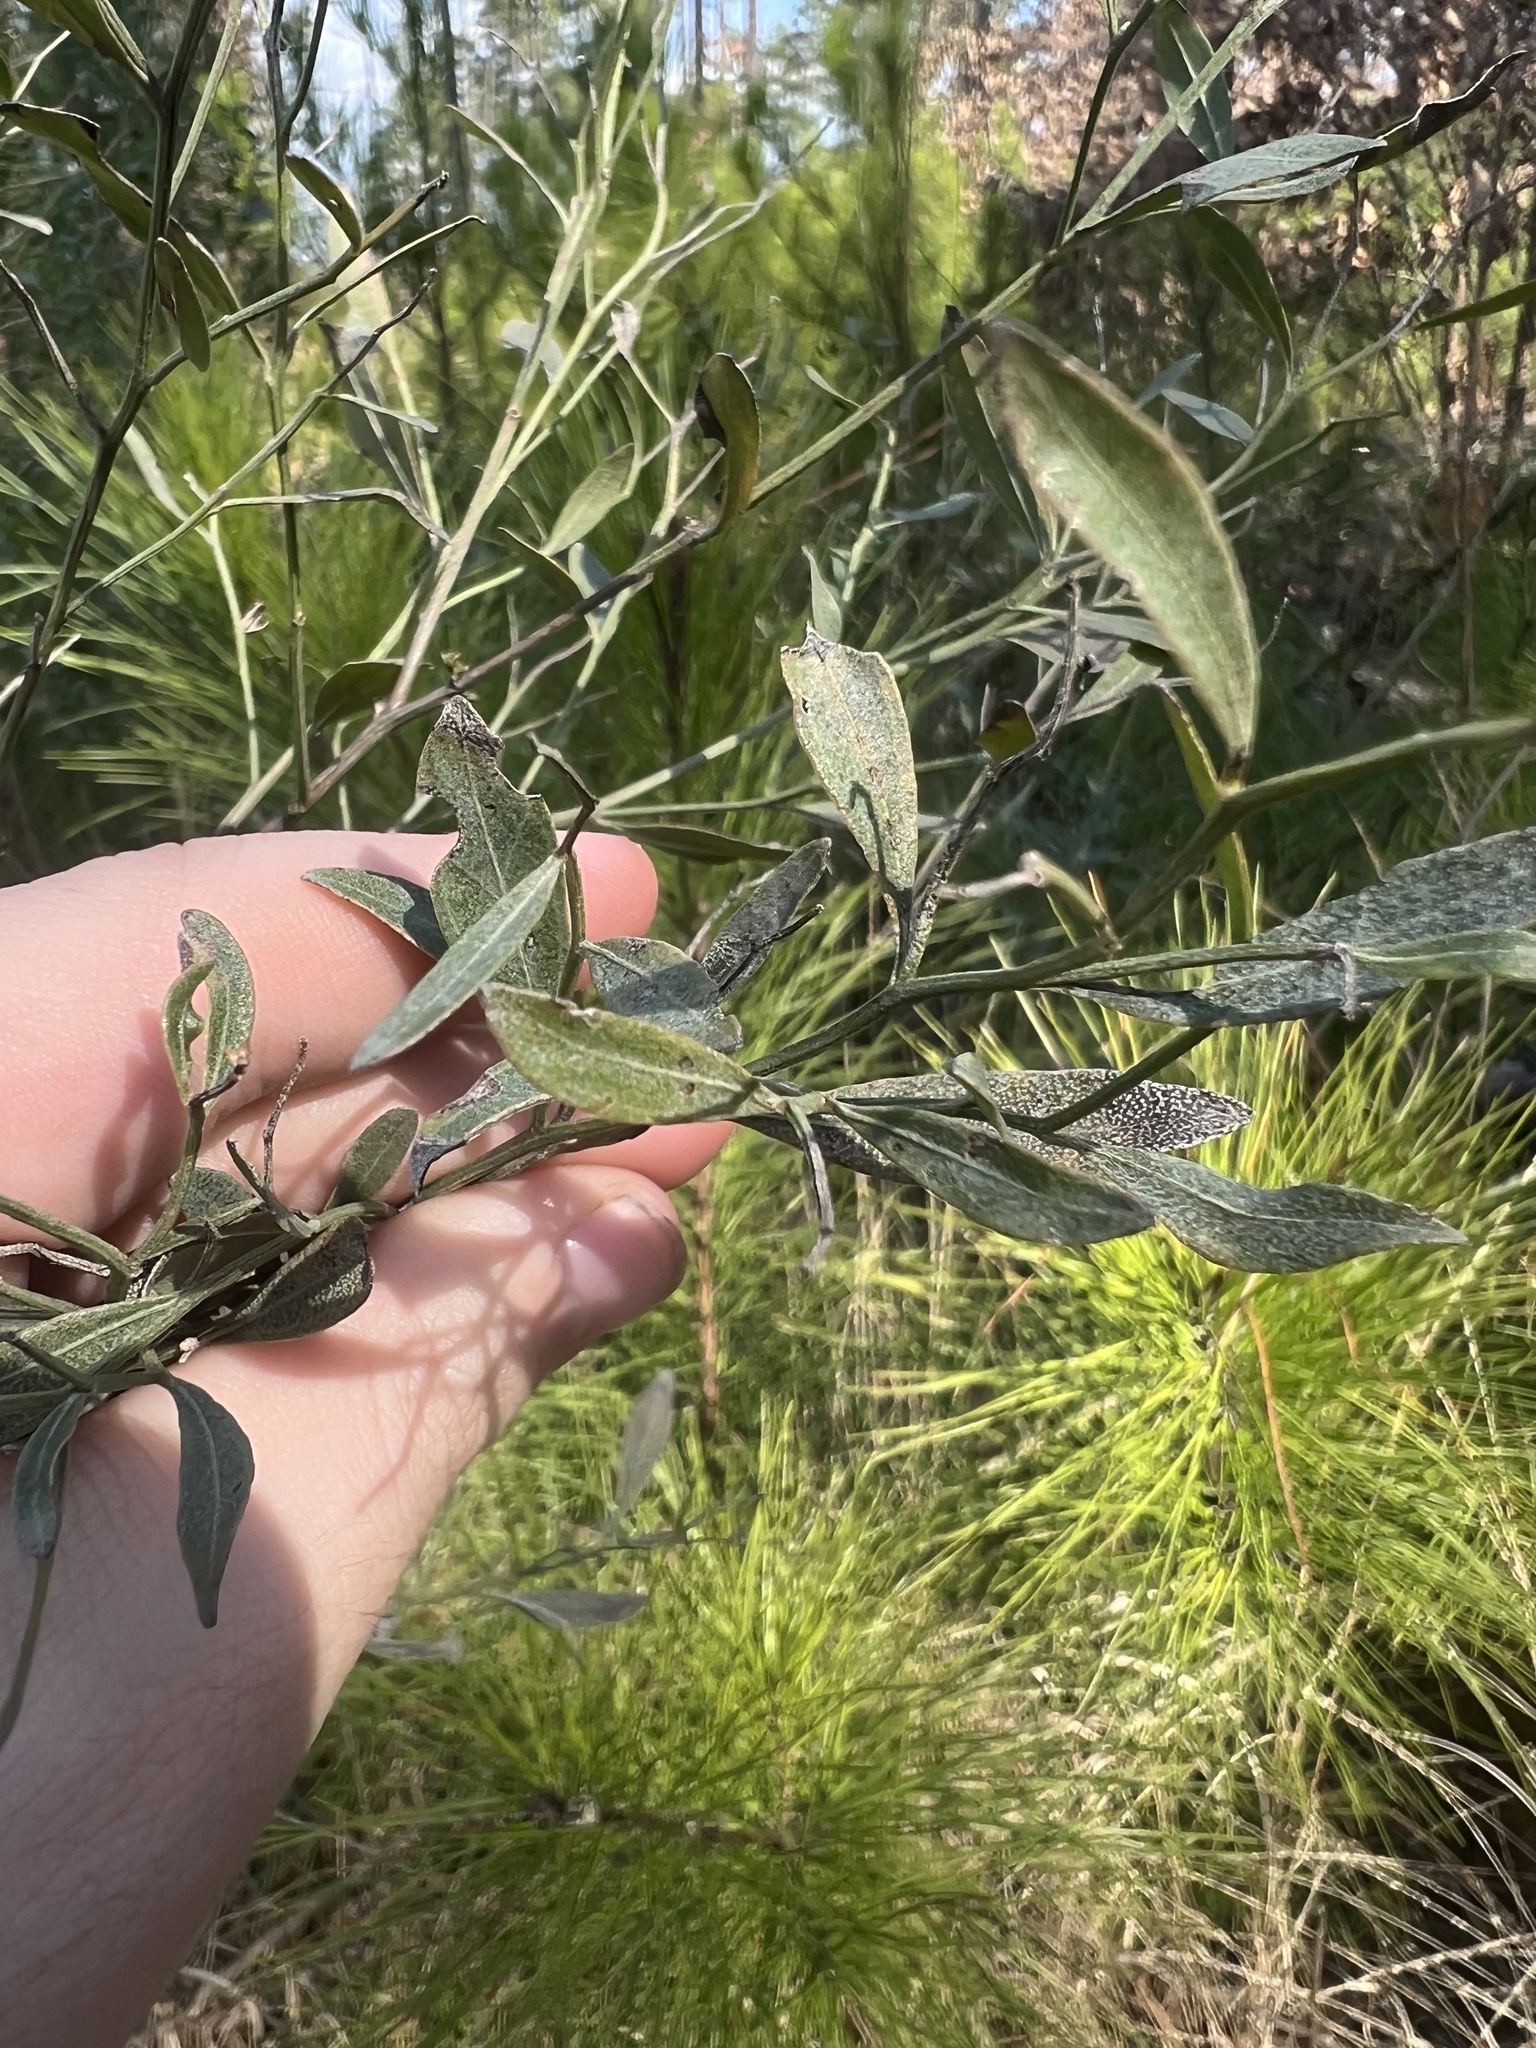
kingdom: Plantae
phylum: Tracheophyta
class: Magnoliopsida
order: Asterales
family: Asteraceae
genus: Baccharis
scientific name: Baccharis halimifolia
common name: Eastern baccharis
